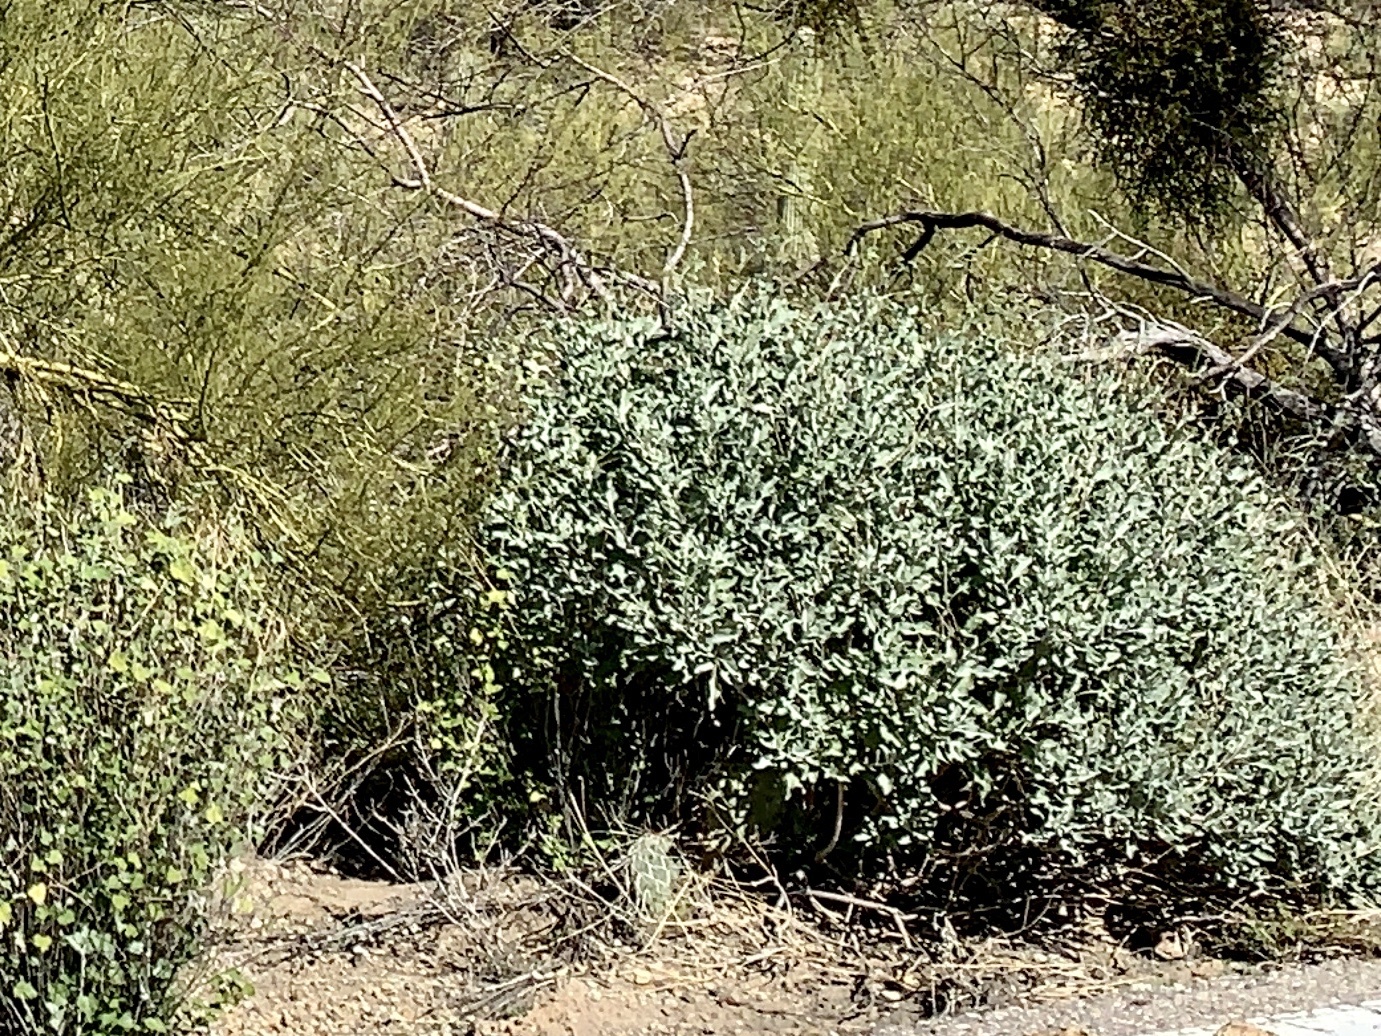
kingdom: Plantae
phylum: Tracheophyta
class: Magnoliopsida
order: Asterales
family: Asteraceae
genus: Encelia
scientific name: Encelia farinosa
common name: Brittlebush
